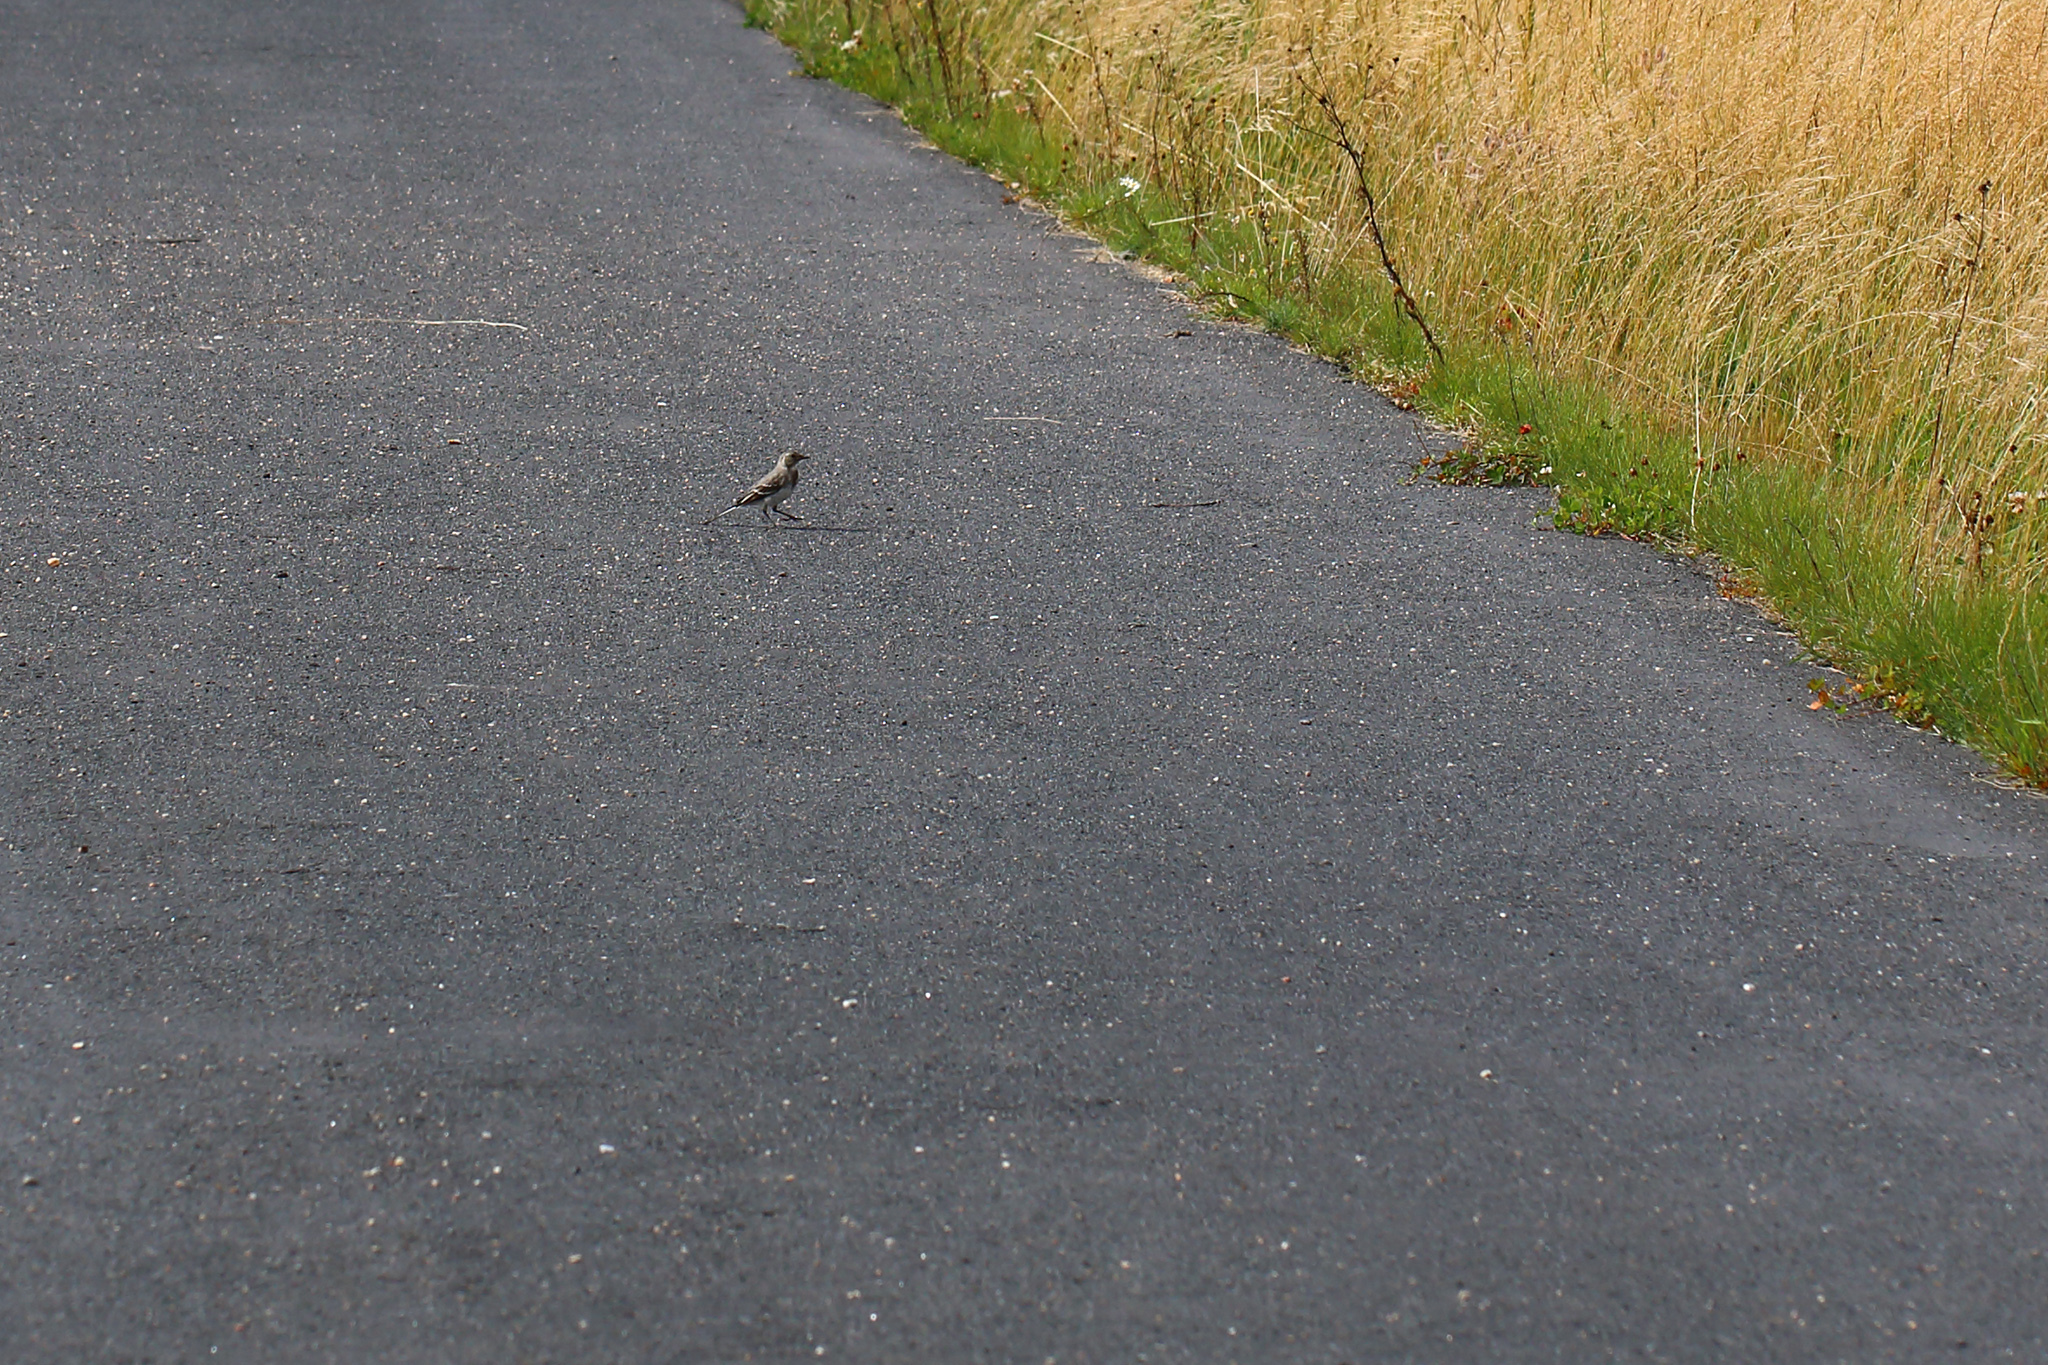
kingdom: Animalia
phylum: Chordata
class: Aves
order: Passeriformes
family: Motacillidae
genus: Motacilla
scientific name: Motacilla alba
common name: White wagtail
